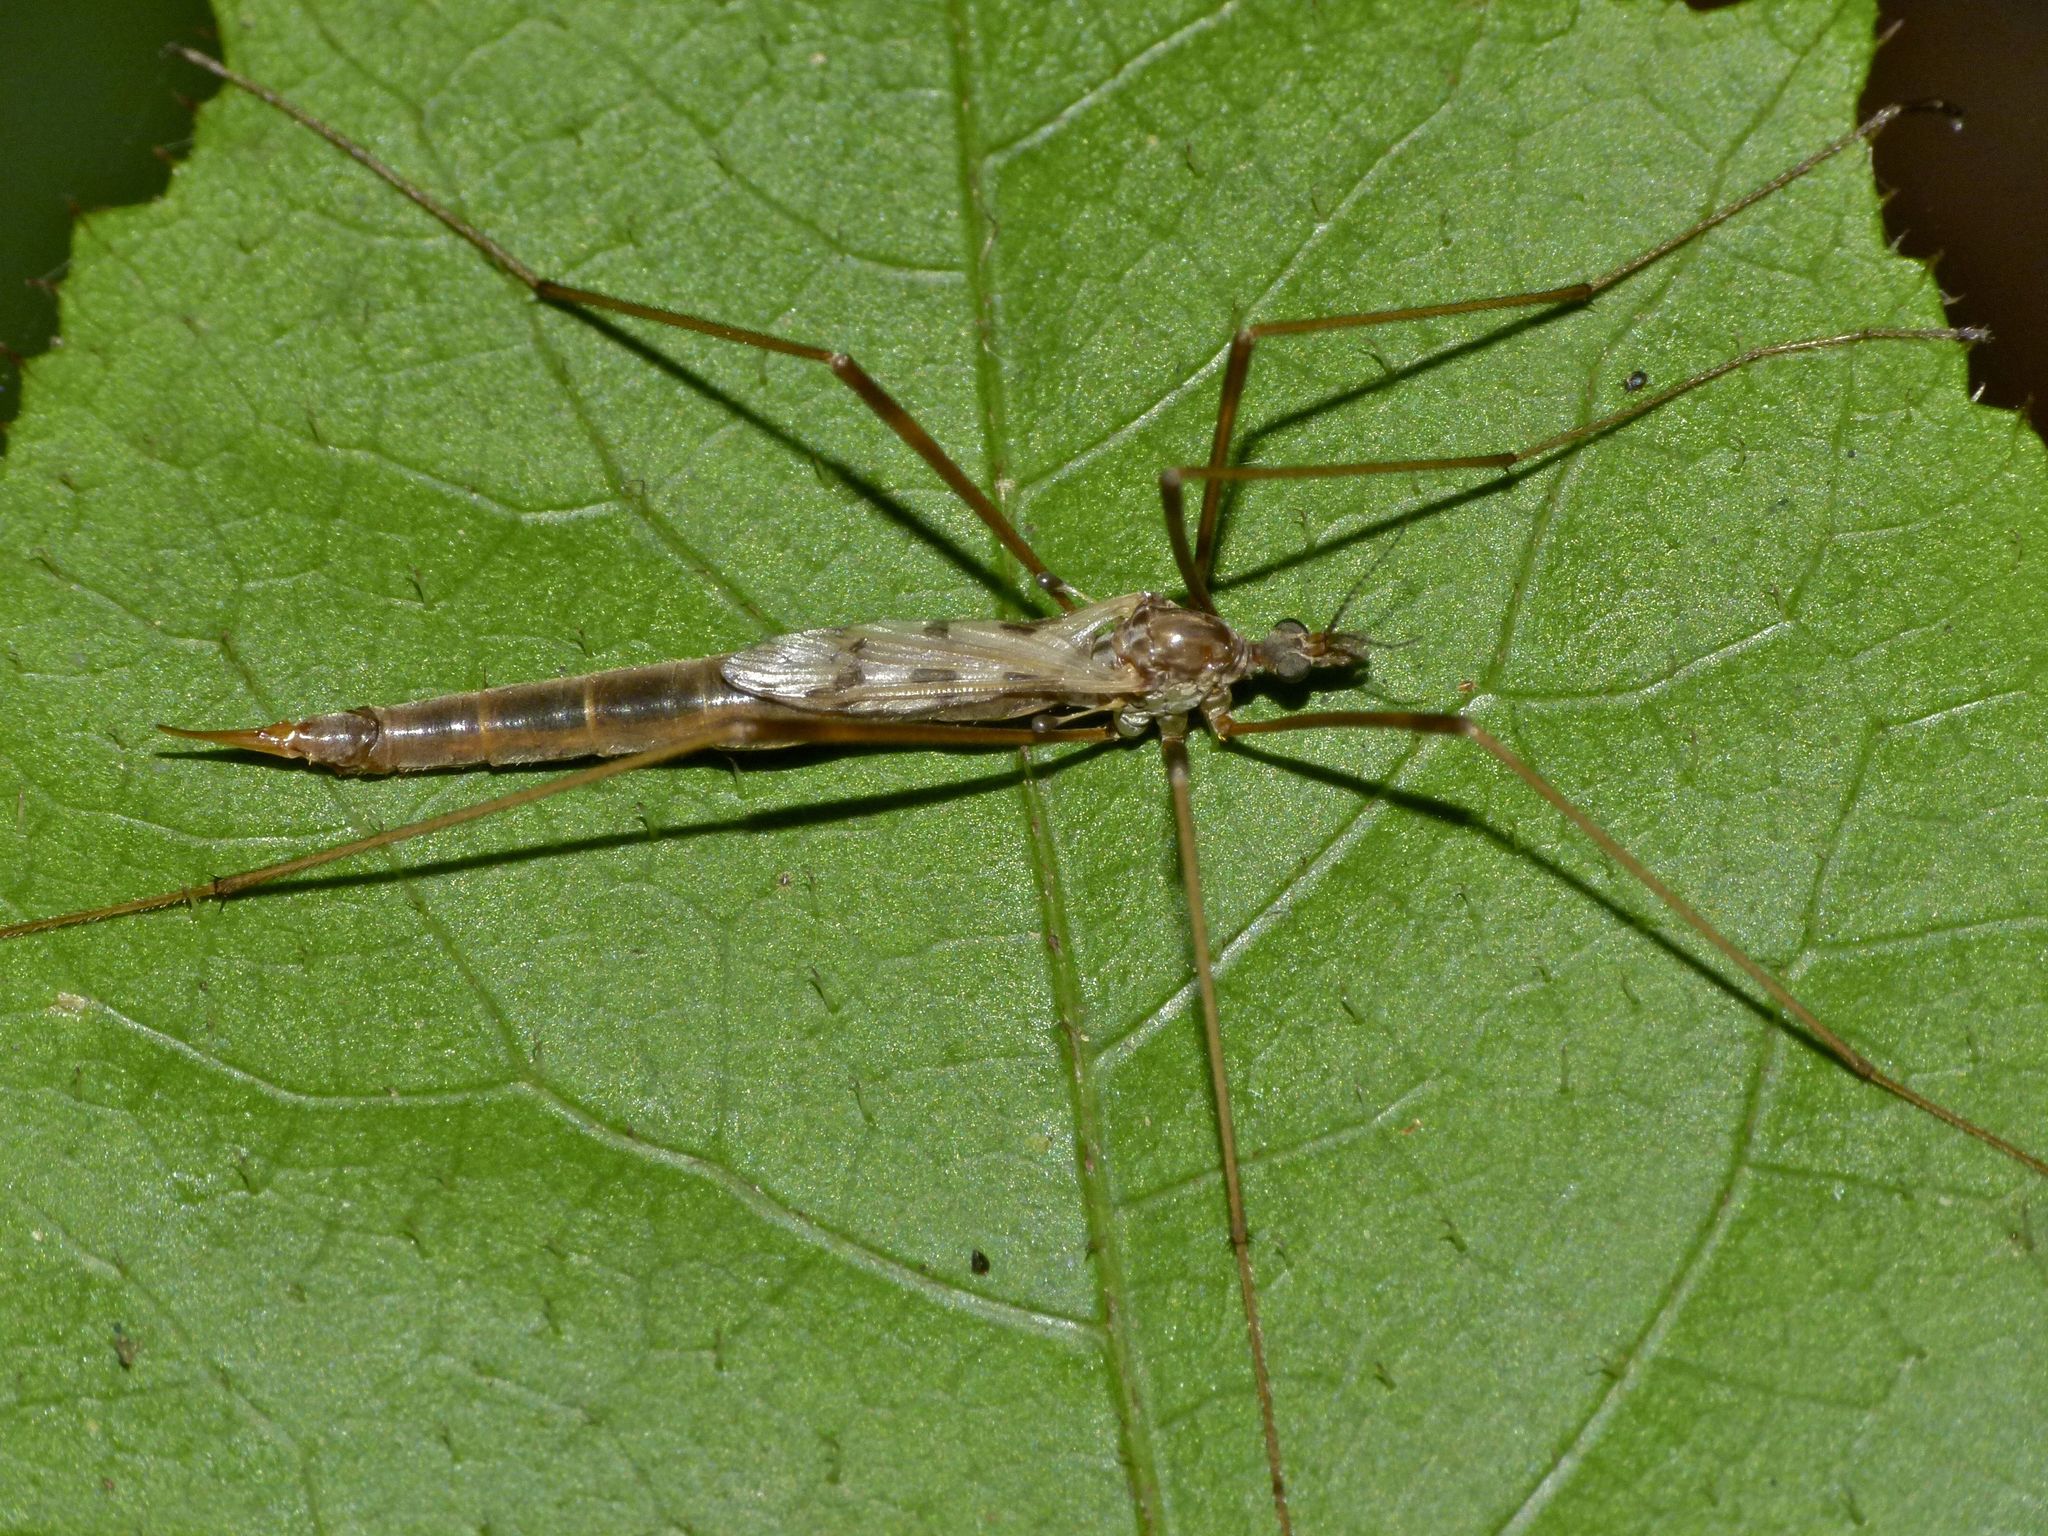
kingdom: Animalia
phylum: Arthropoda
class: Insecta
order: Diptera
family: Limoniidae
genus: Gynoplistia
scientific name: Gynoplistia notata
